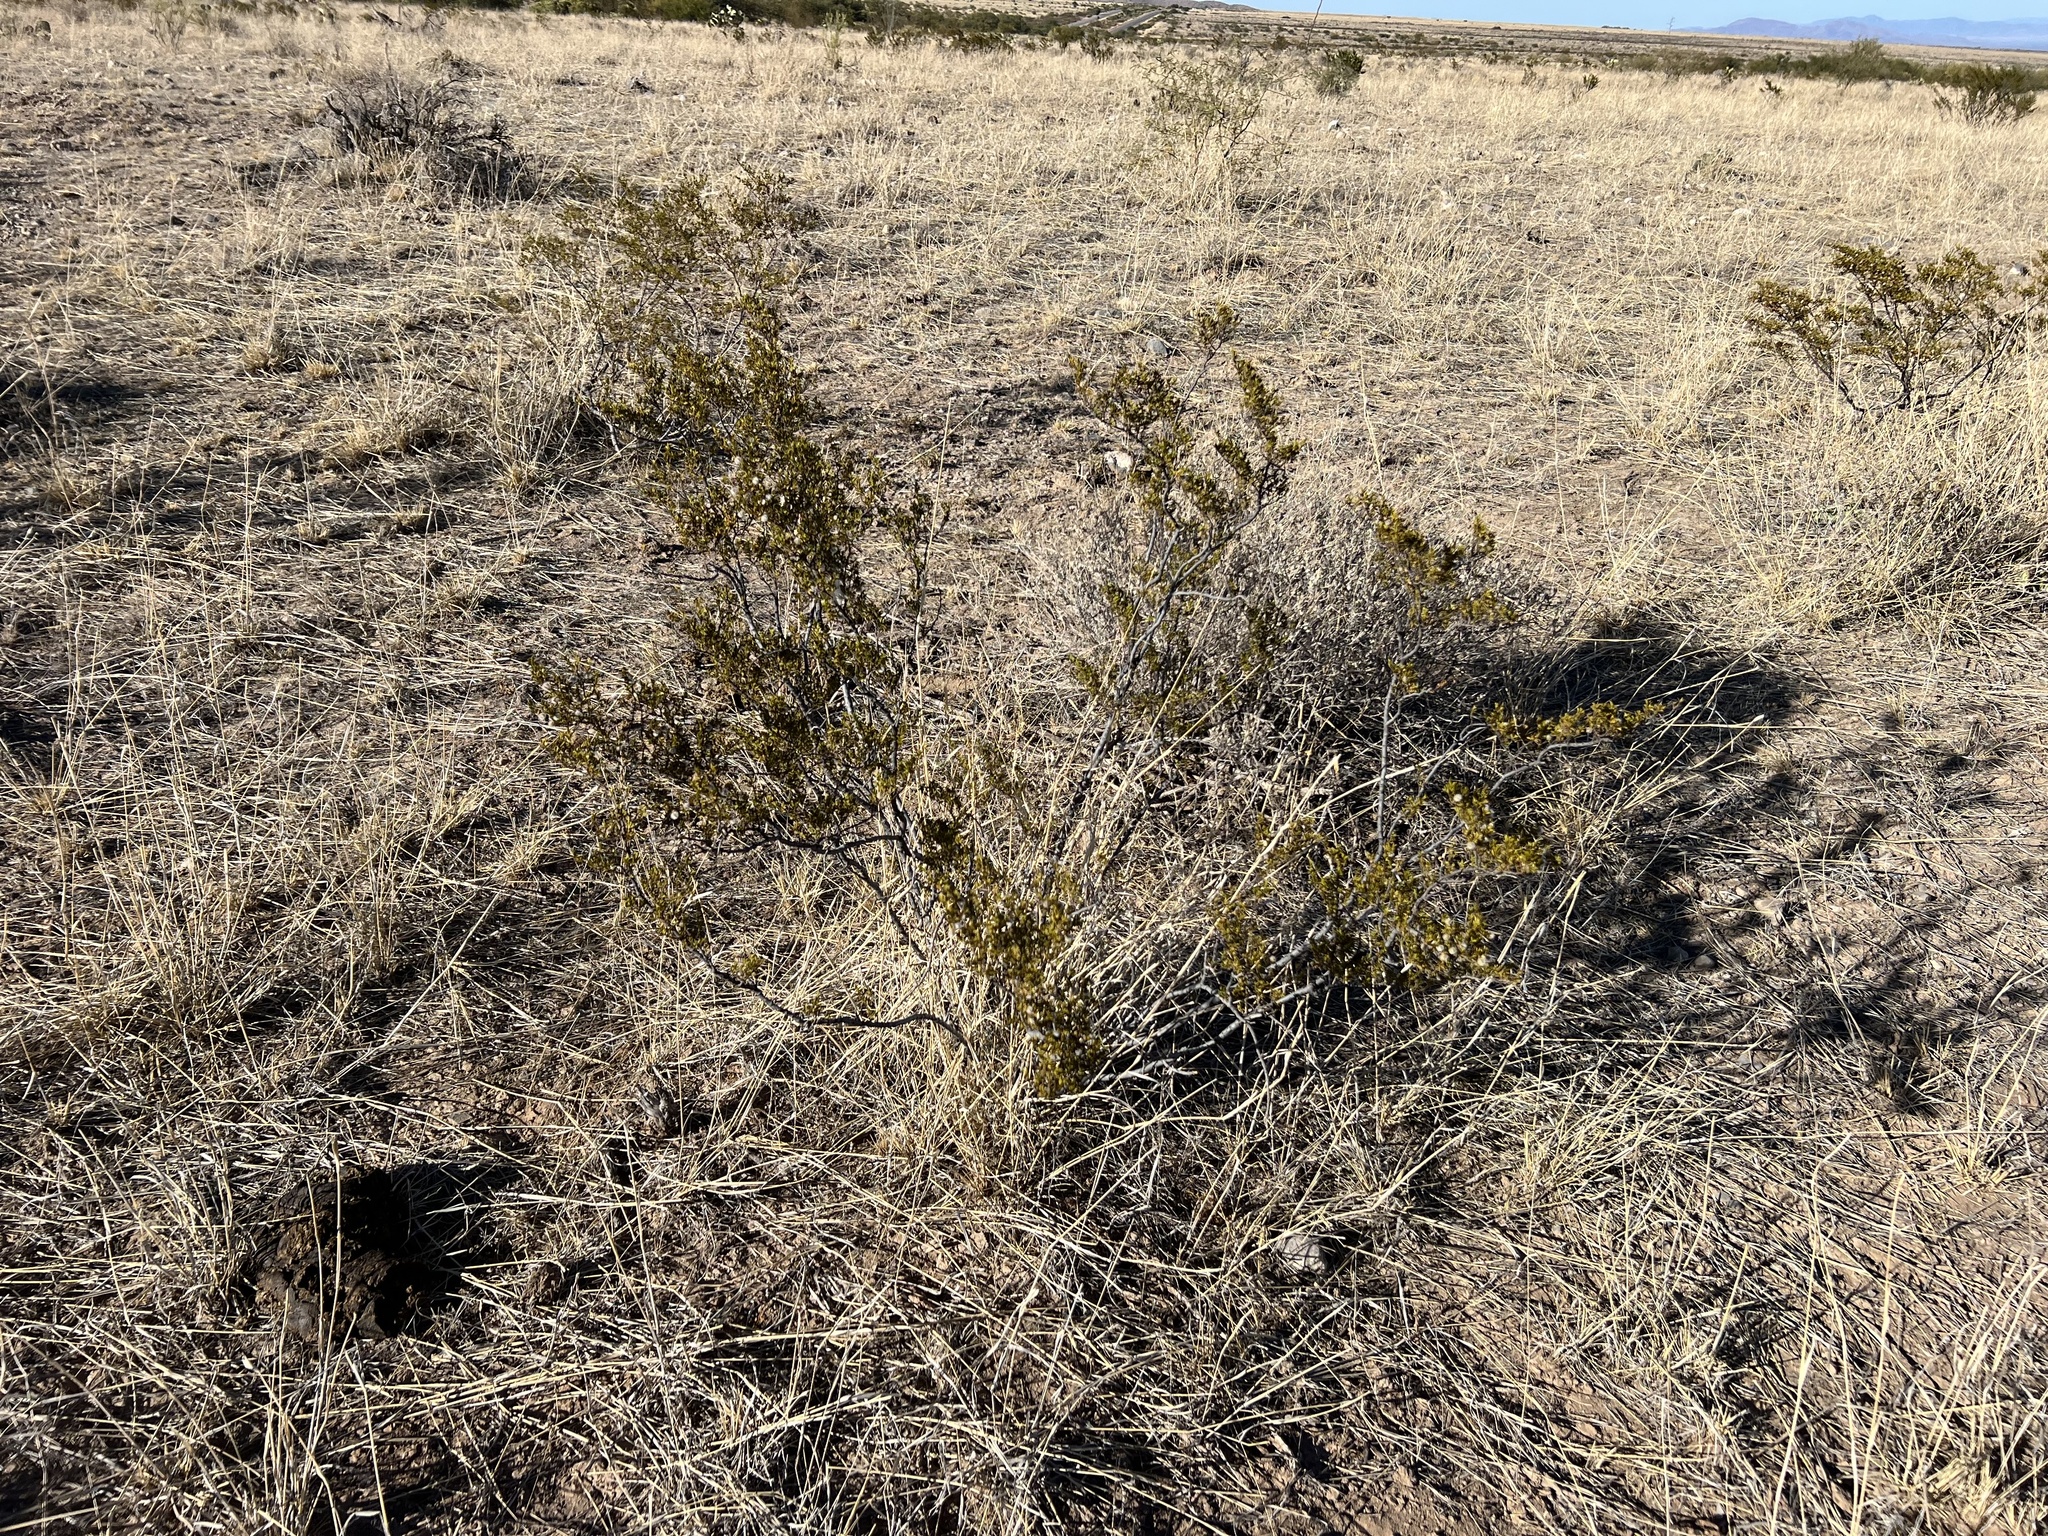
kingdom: Plantae
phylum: Tracheophyta
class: Magnoliopsida
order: Zygophyllales
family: Zygophyllaceae
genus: Larrea
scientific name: Larrea tridentata
